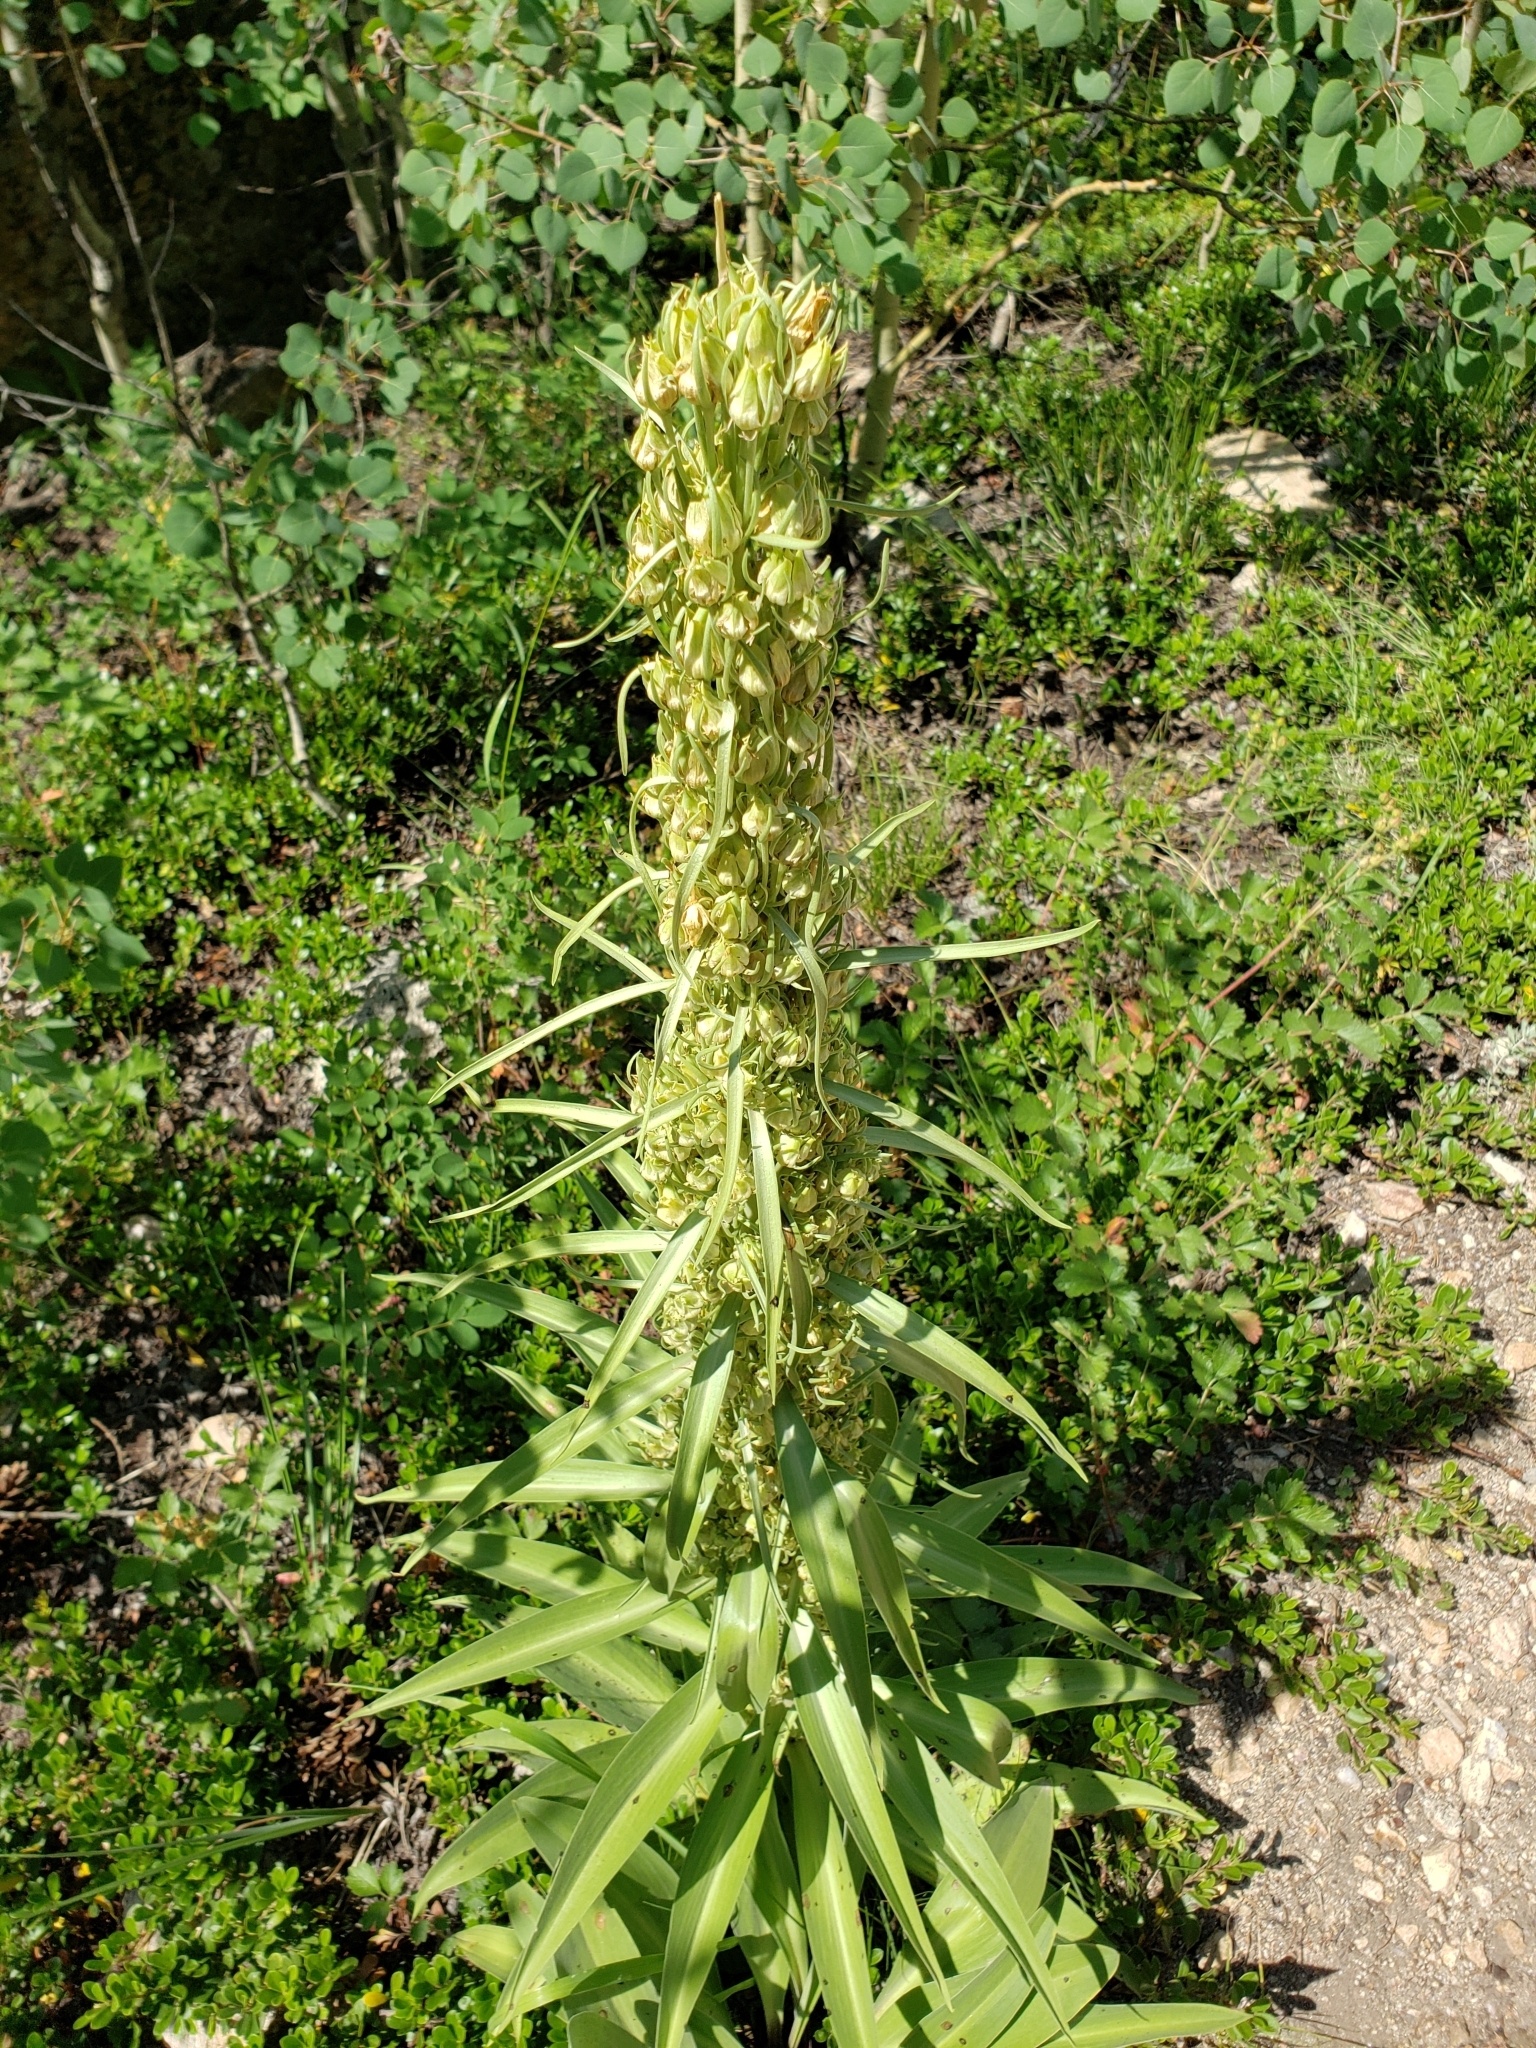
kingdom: Plantae
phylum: Tracheophyta
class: Magnoliopsida
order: Gentianales
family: Gentianaceae
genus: Frasera
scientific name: Frasera speciosa
